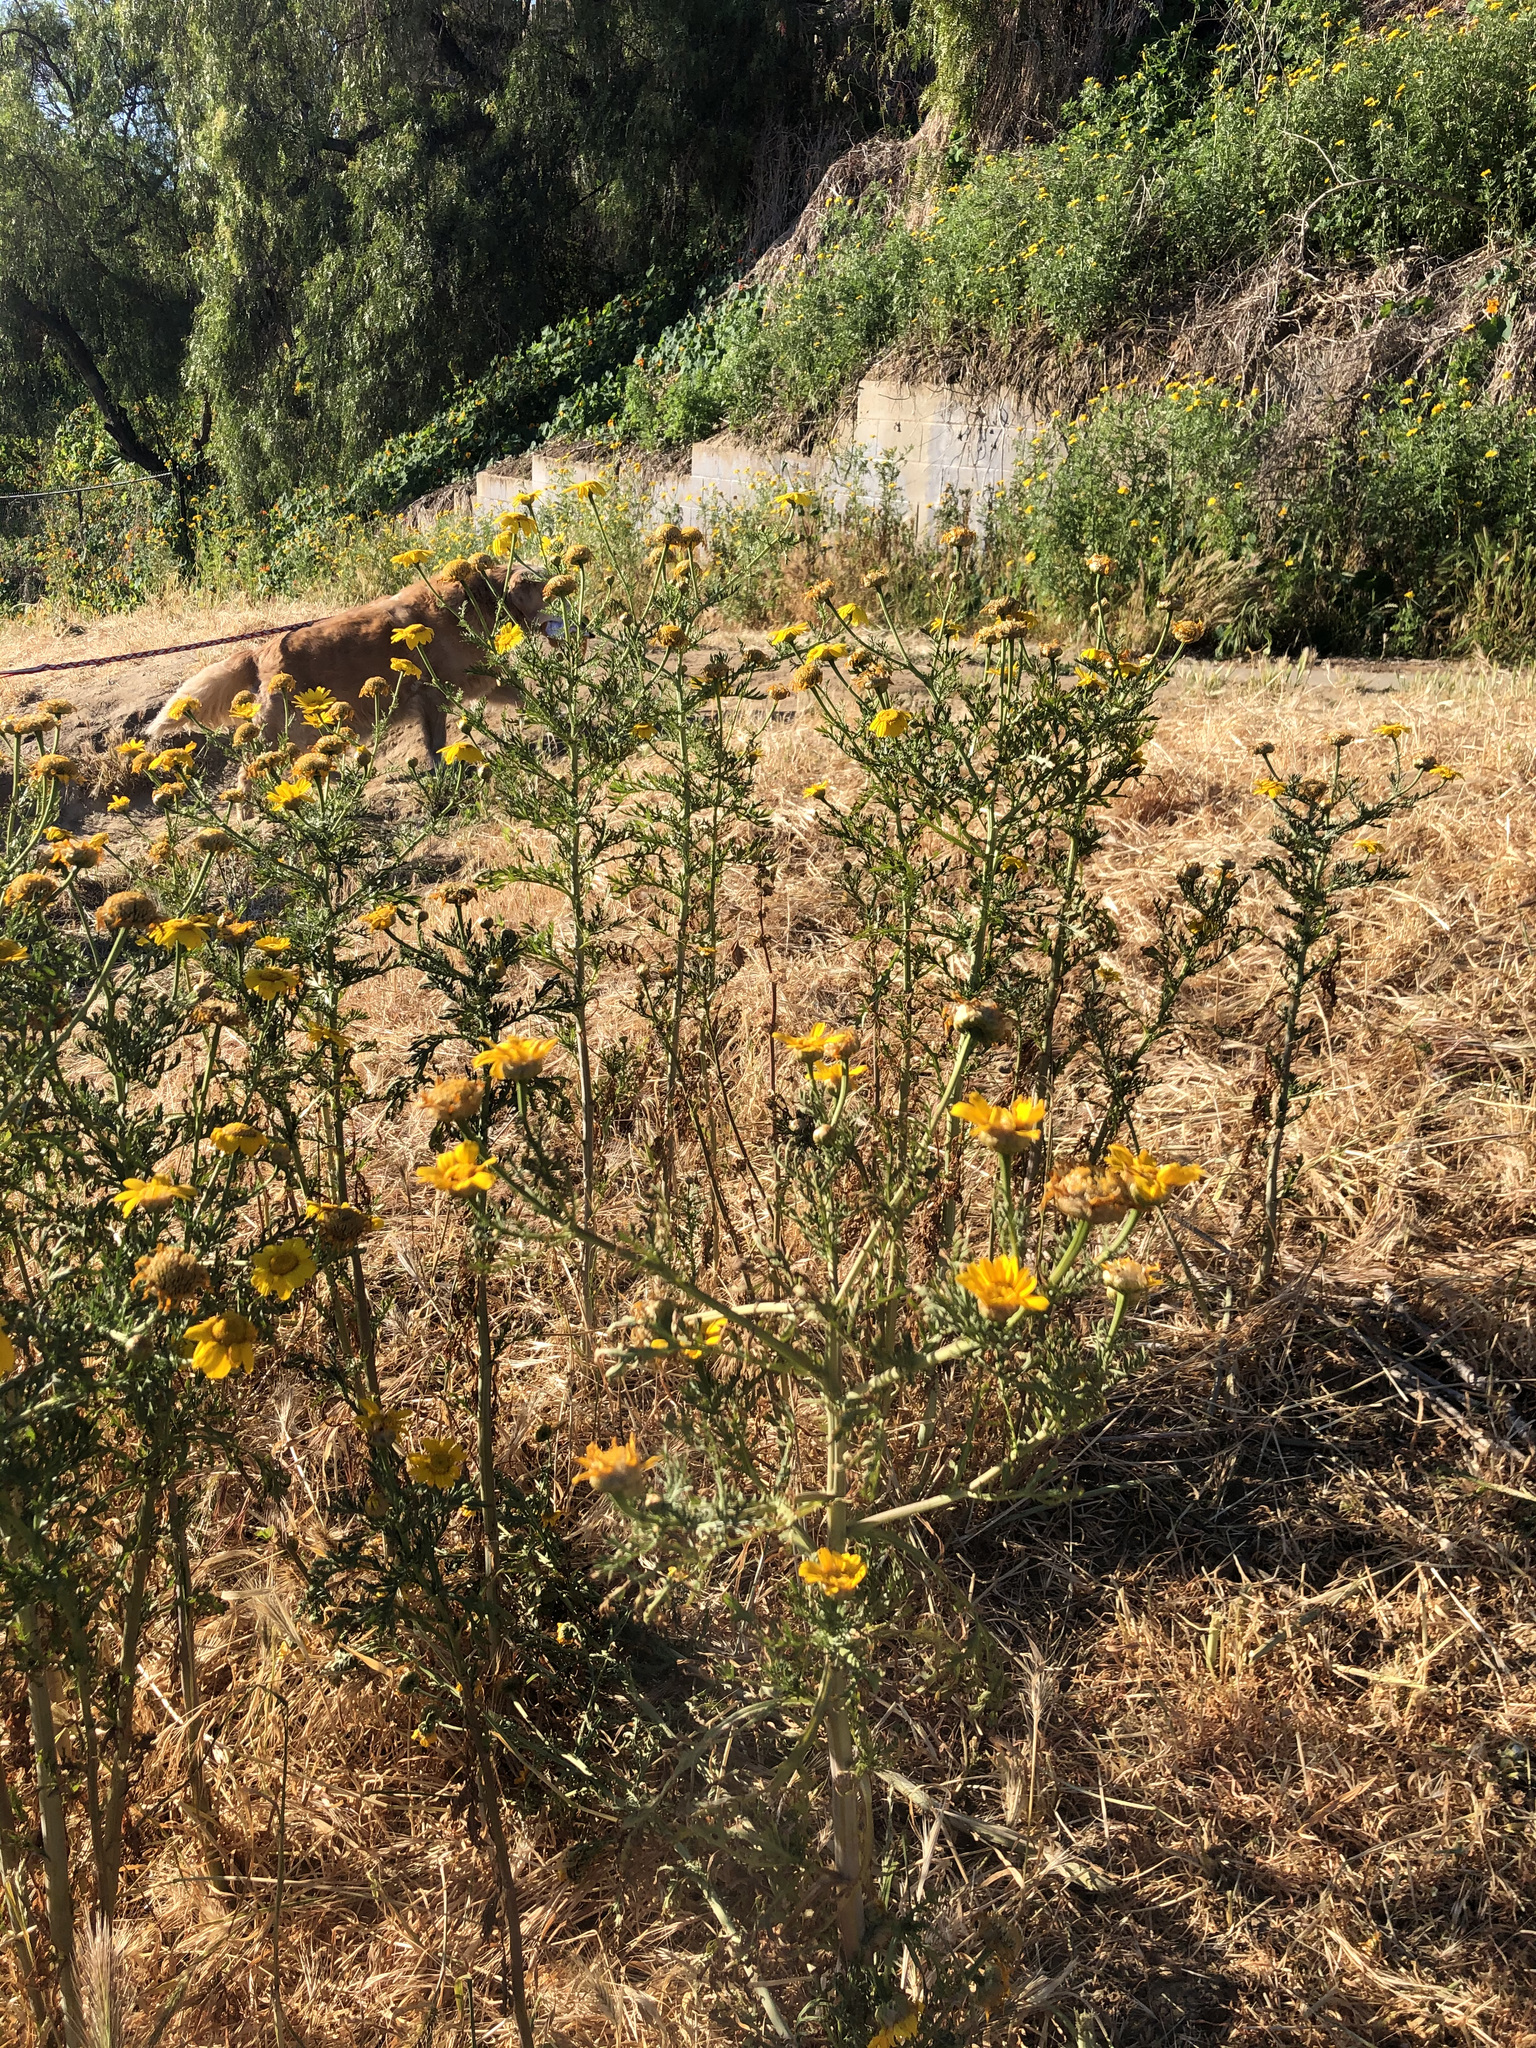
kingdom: Plantae
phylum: Tracheophyta
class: Magnoliopsida
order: Asterales
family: Asteraceae
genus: Glebionis
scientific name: Glebionis coronaria
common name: Crowndaisy
